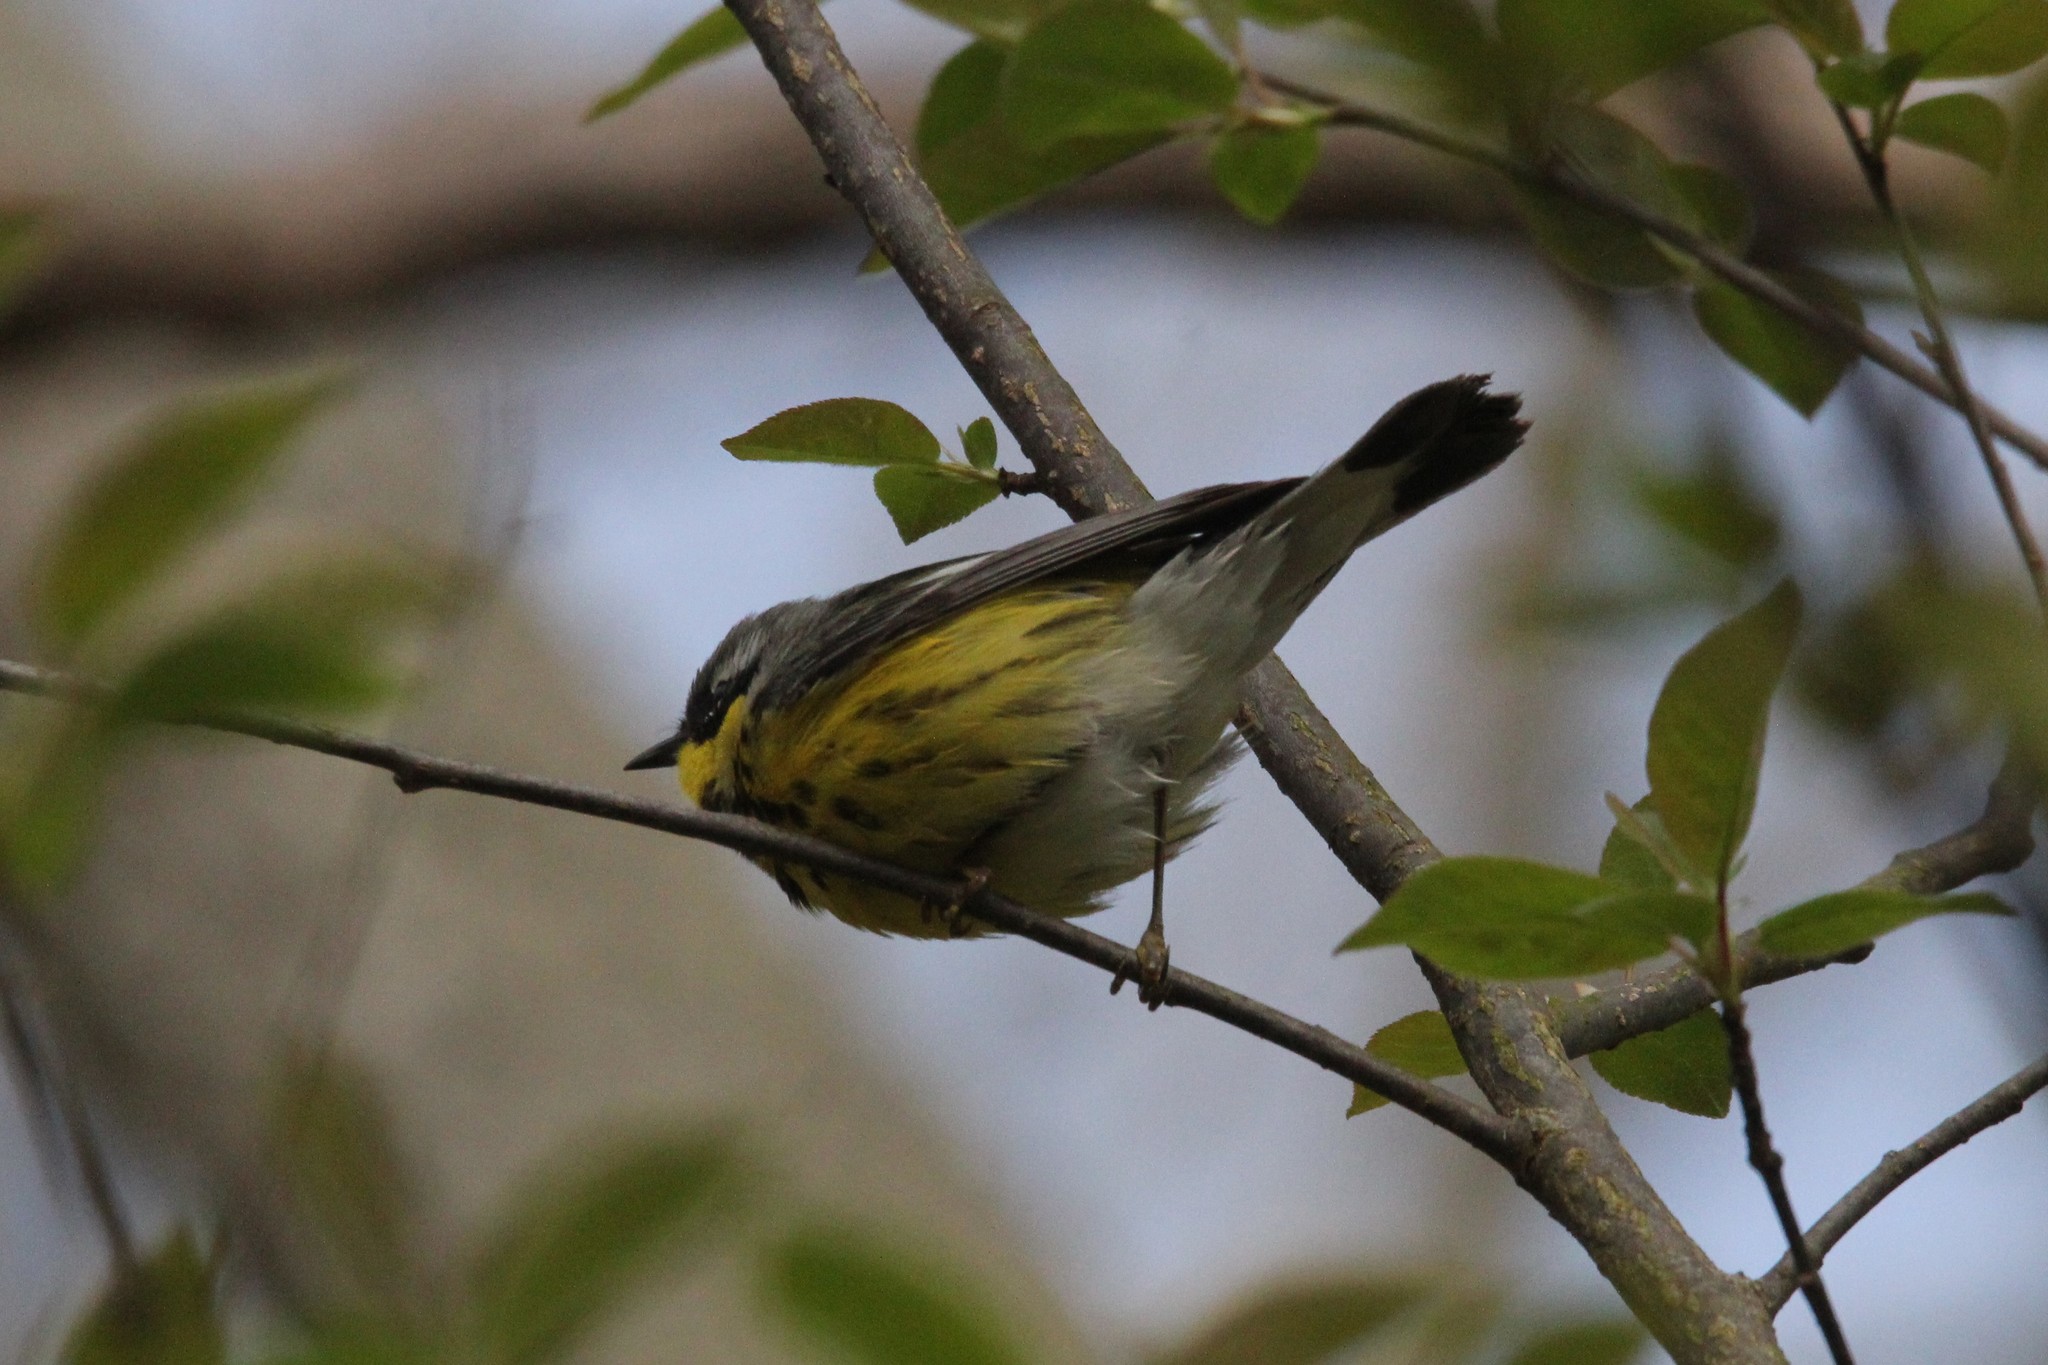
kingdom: Animalia
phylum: Chordata
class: Aves
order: Passeriformes
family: Parulidae
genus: Setophaga
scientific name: Setophaga magnolia
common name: Magnolia warbler
